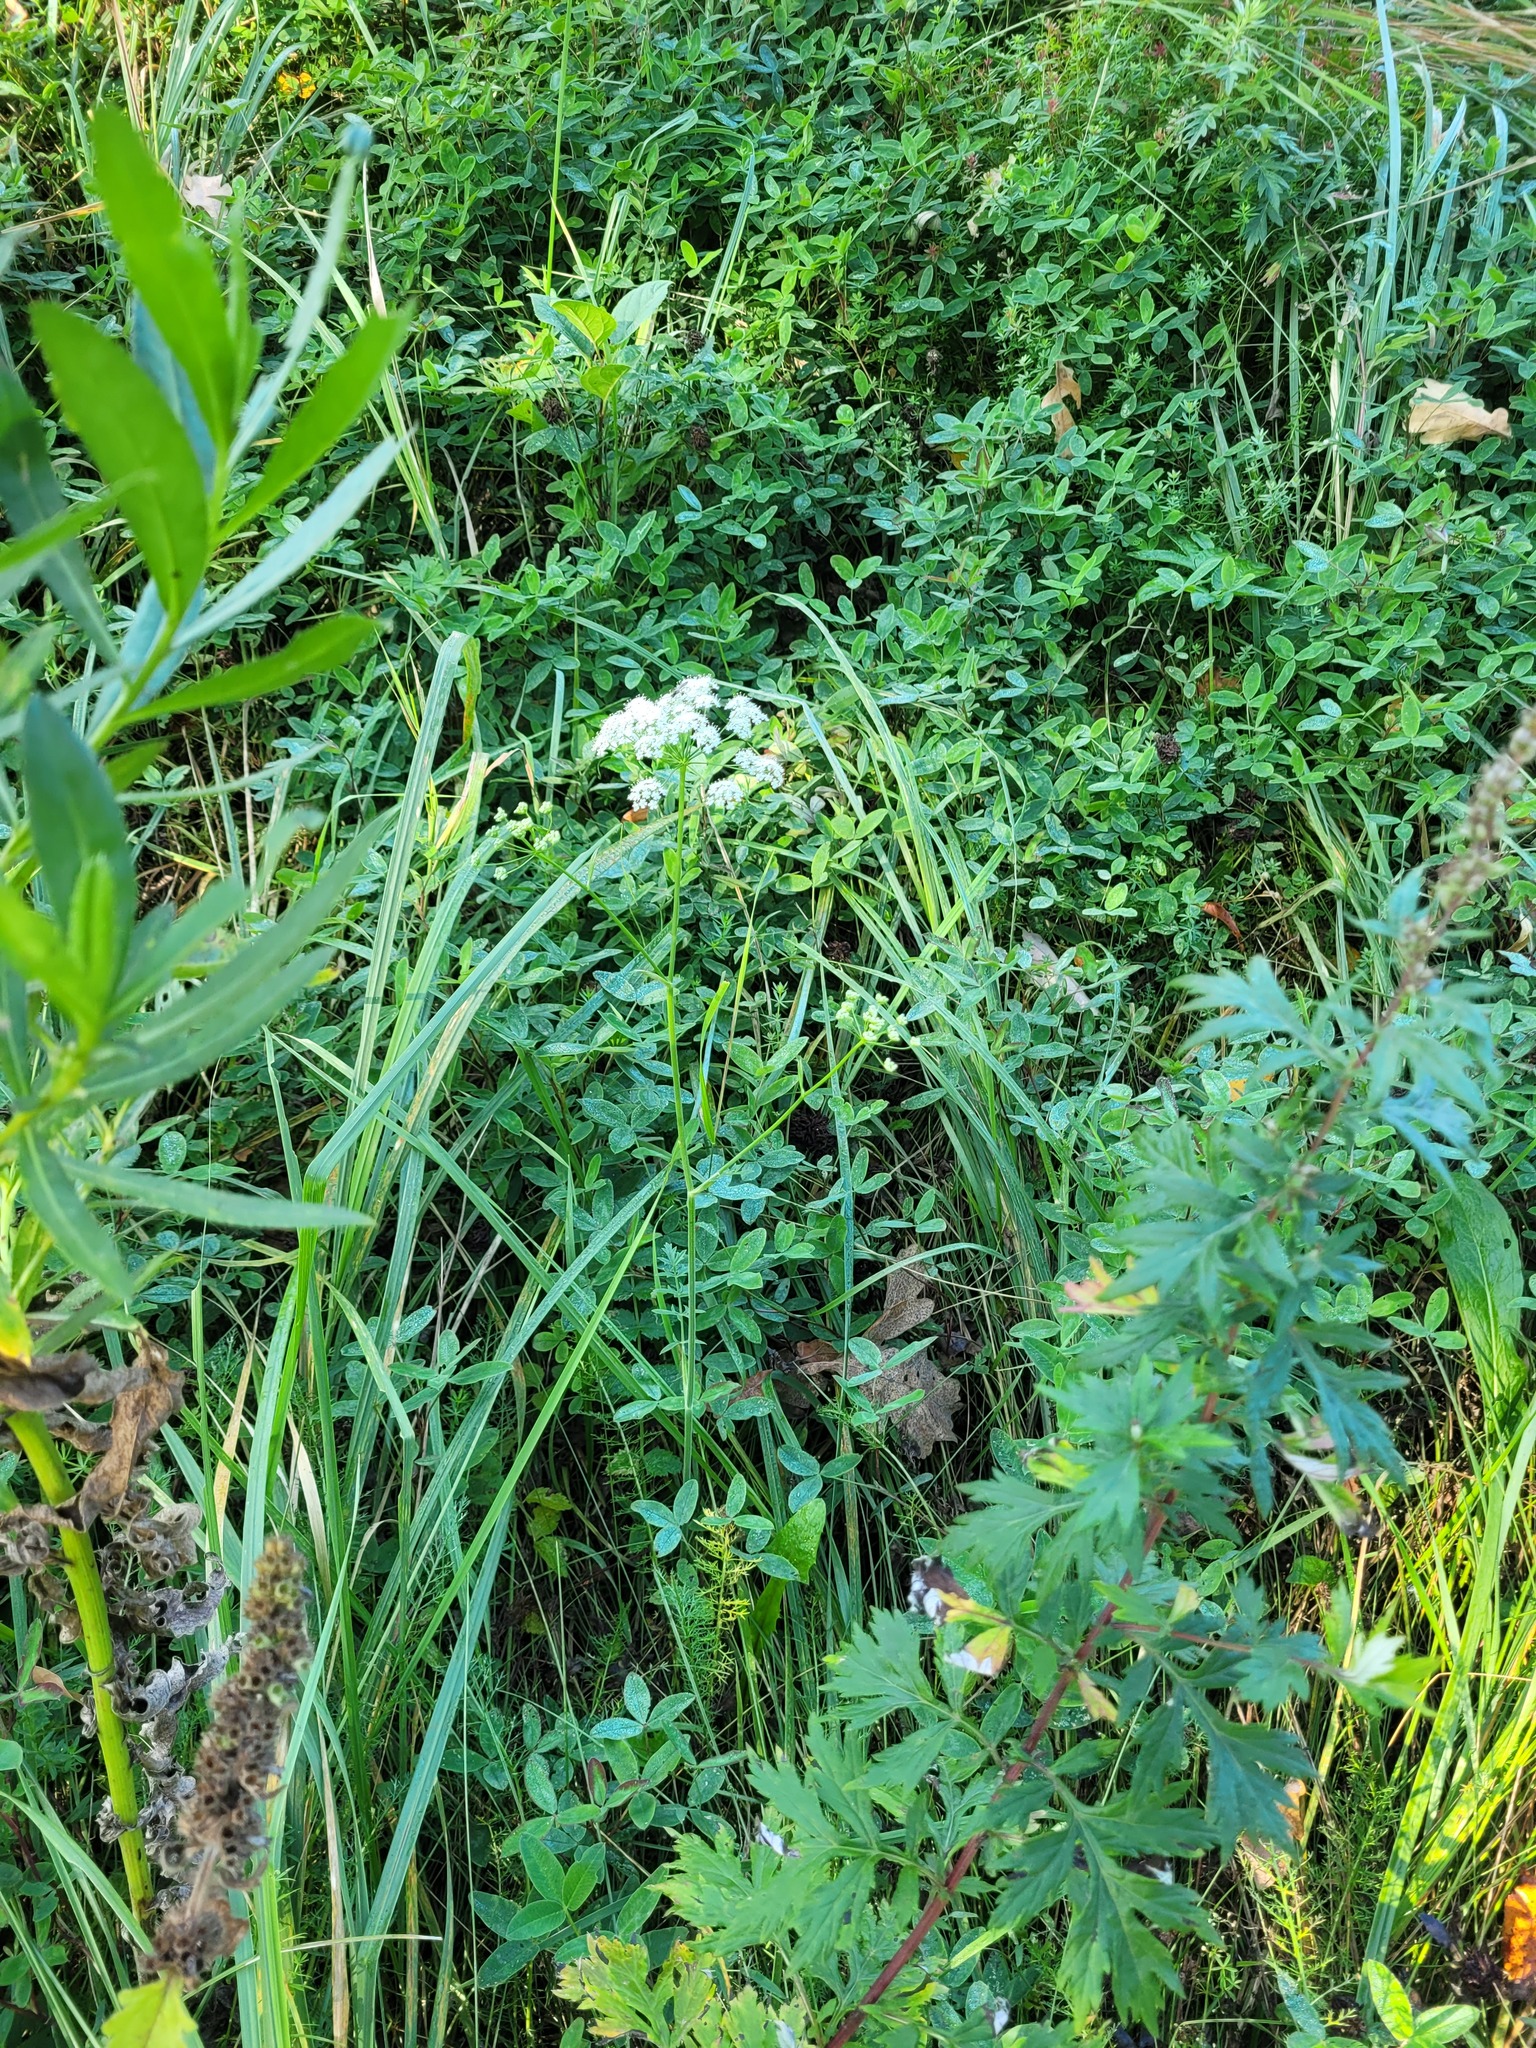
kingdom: Plantae
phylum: Tracheophyta
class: Magnoliopsida
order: Apiales
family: Apiaceae
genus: Pimpinella
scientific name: Pimpinella saxifraga
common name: Burnet-saxifrage
